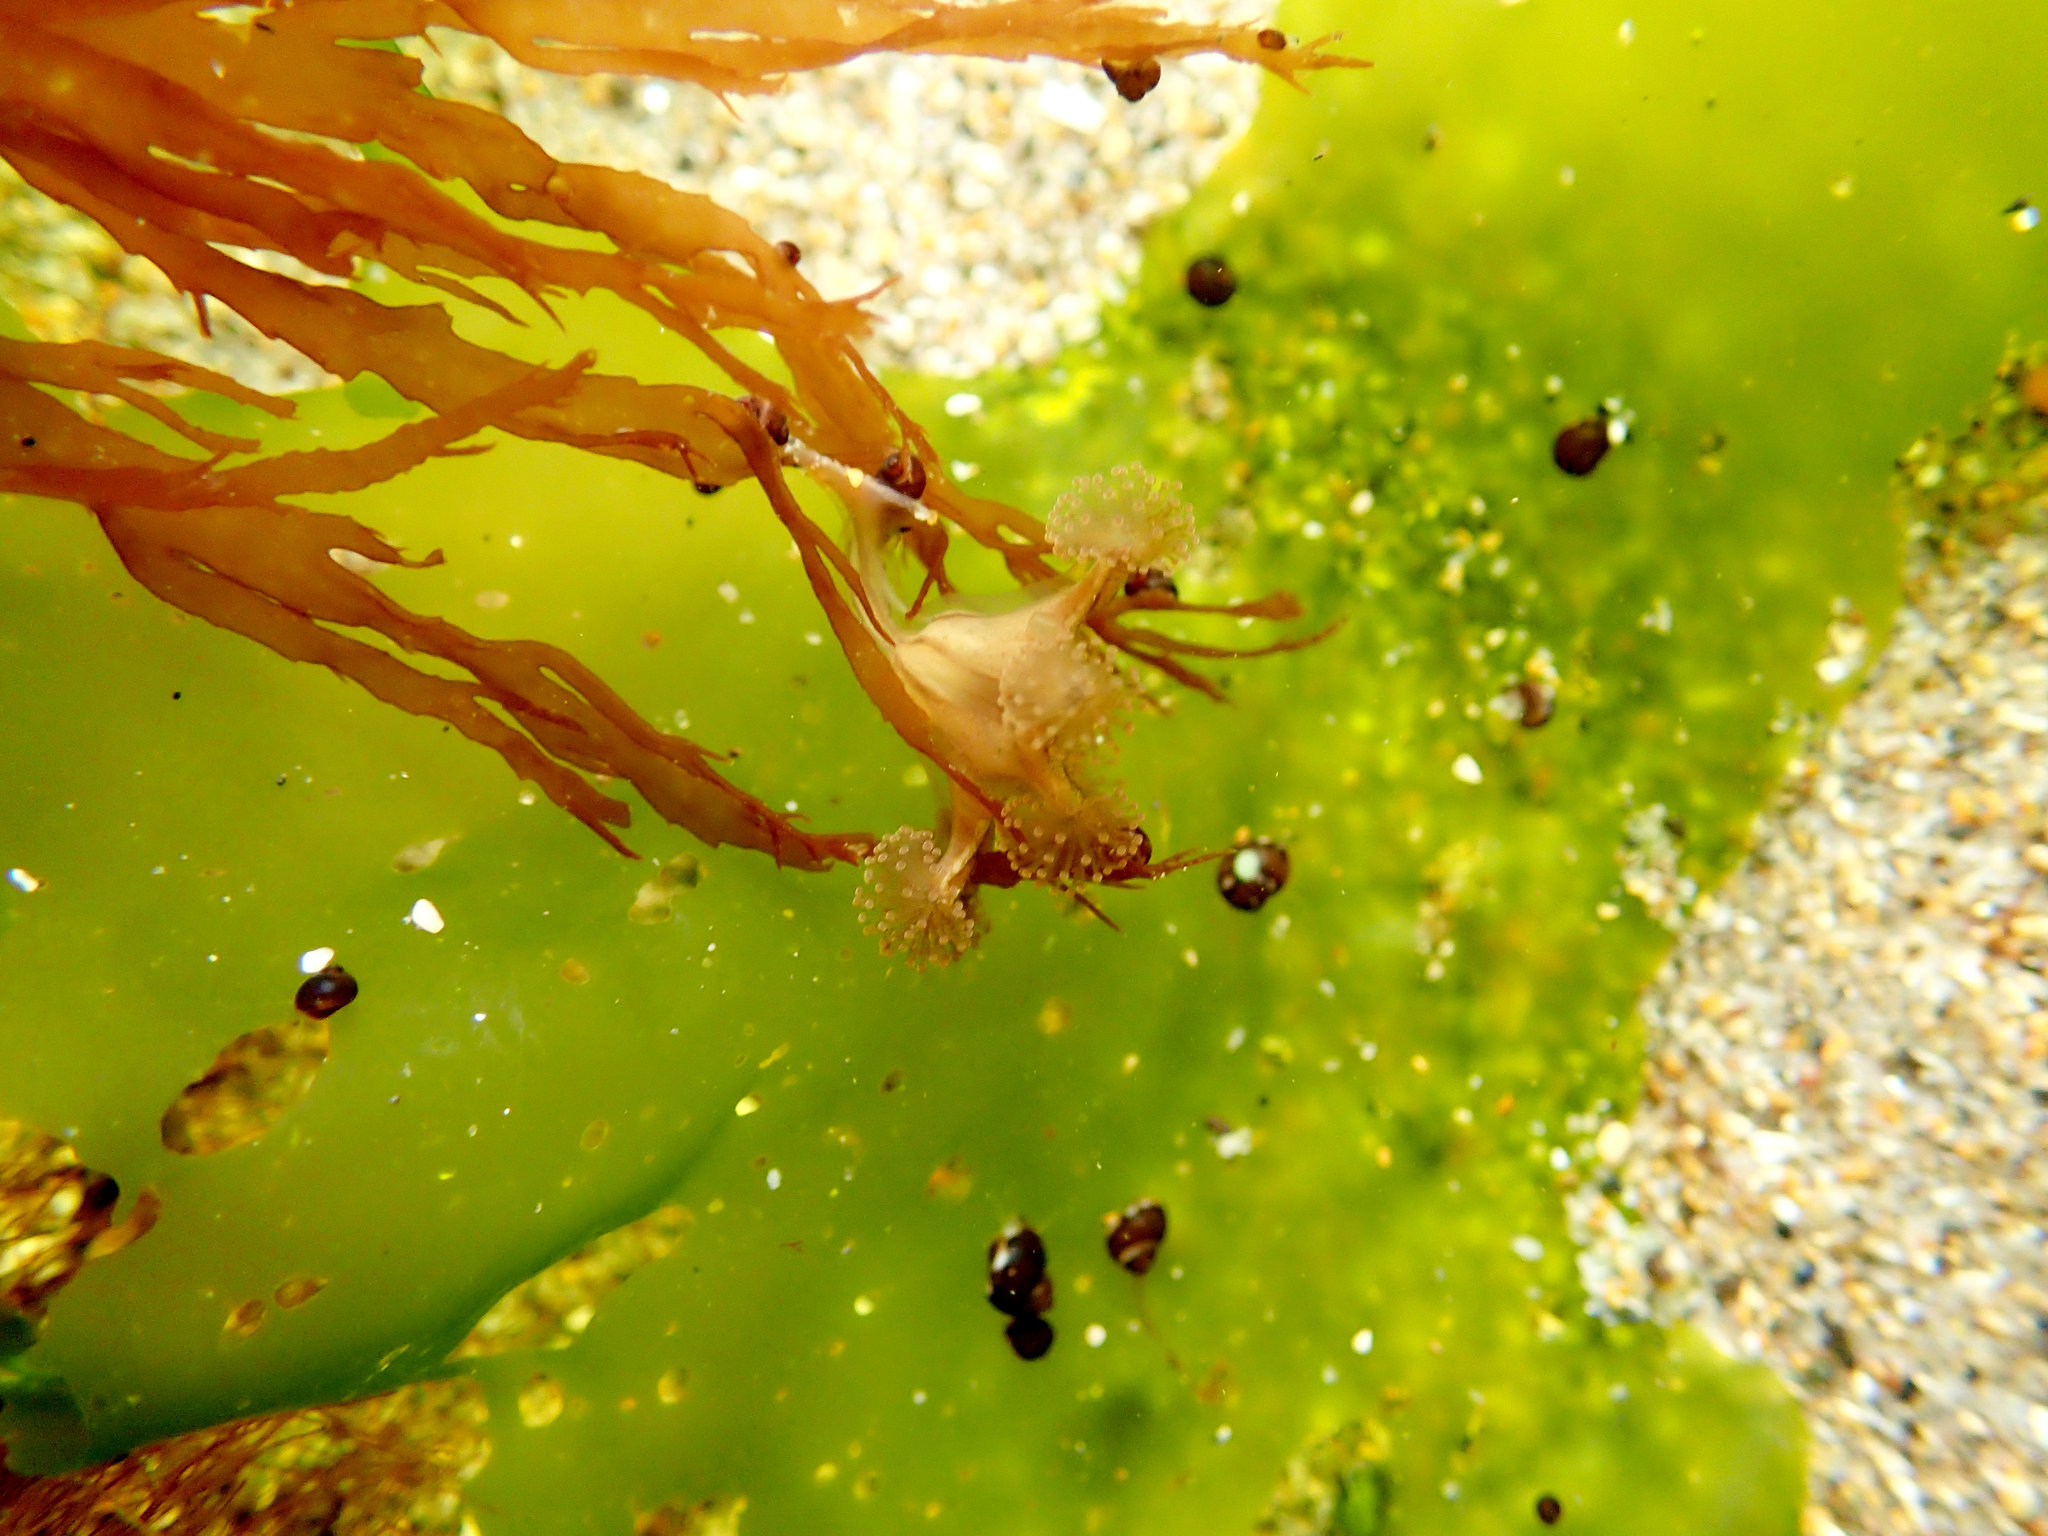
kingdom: Animalia
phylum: Cnidaria
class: Staurozoa
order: Stauromedusae
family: Haliclystidae
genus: Haliclystus
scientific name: Haliclystus sanjuanensis
